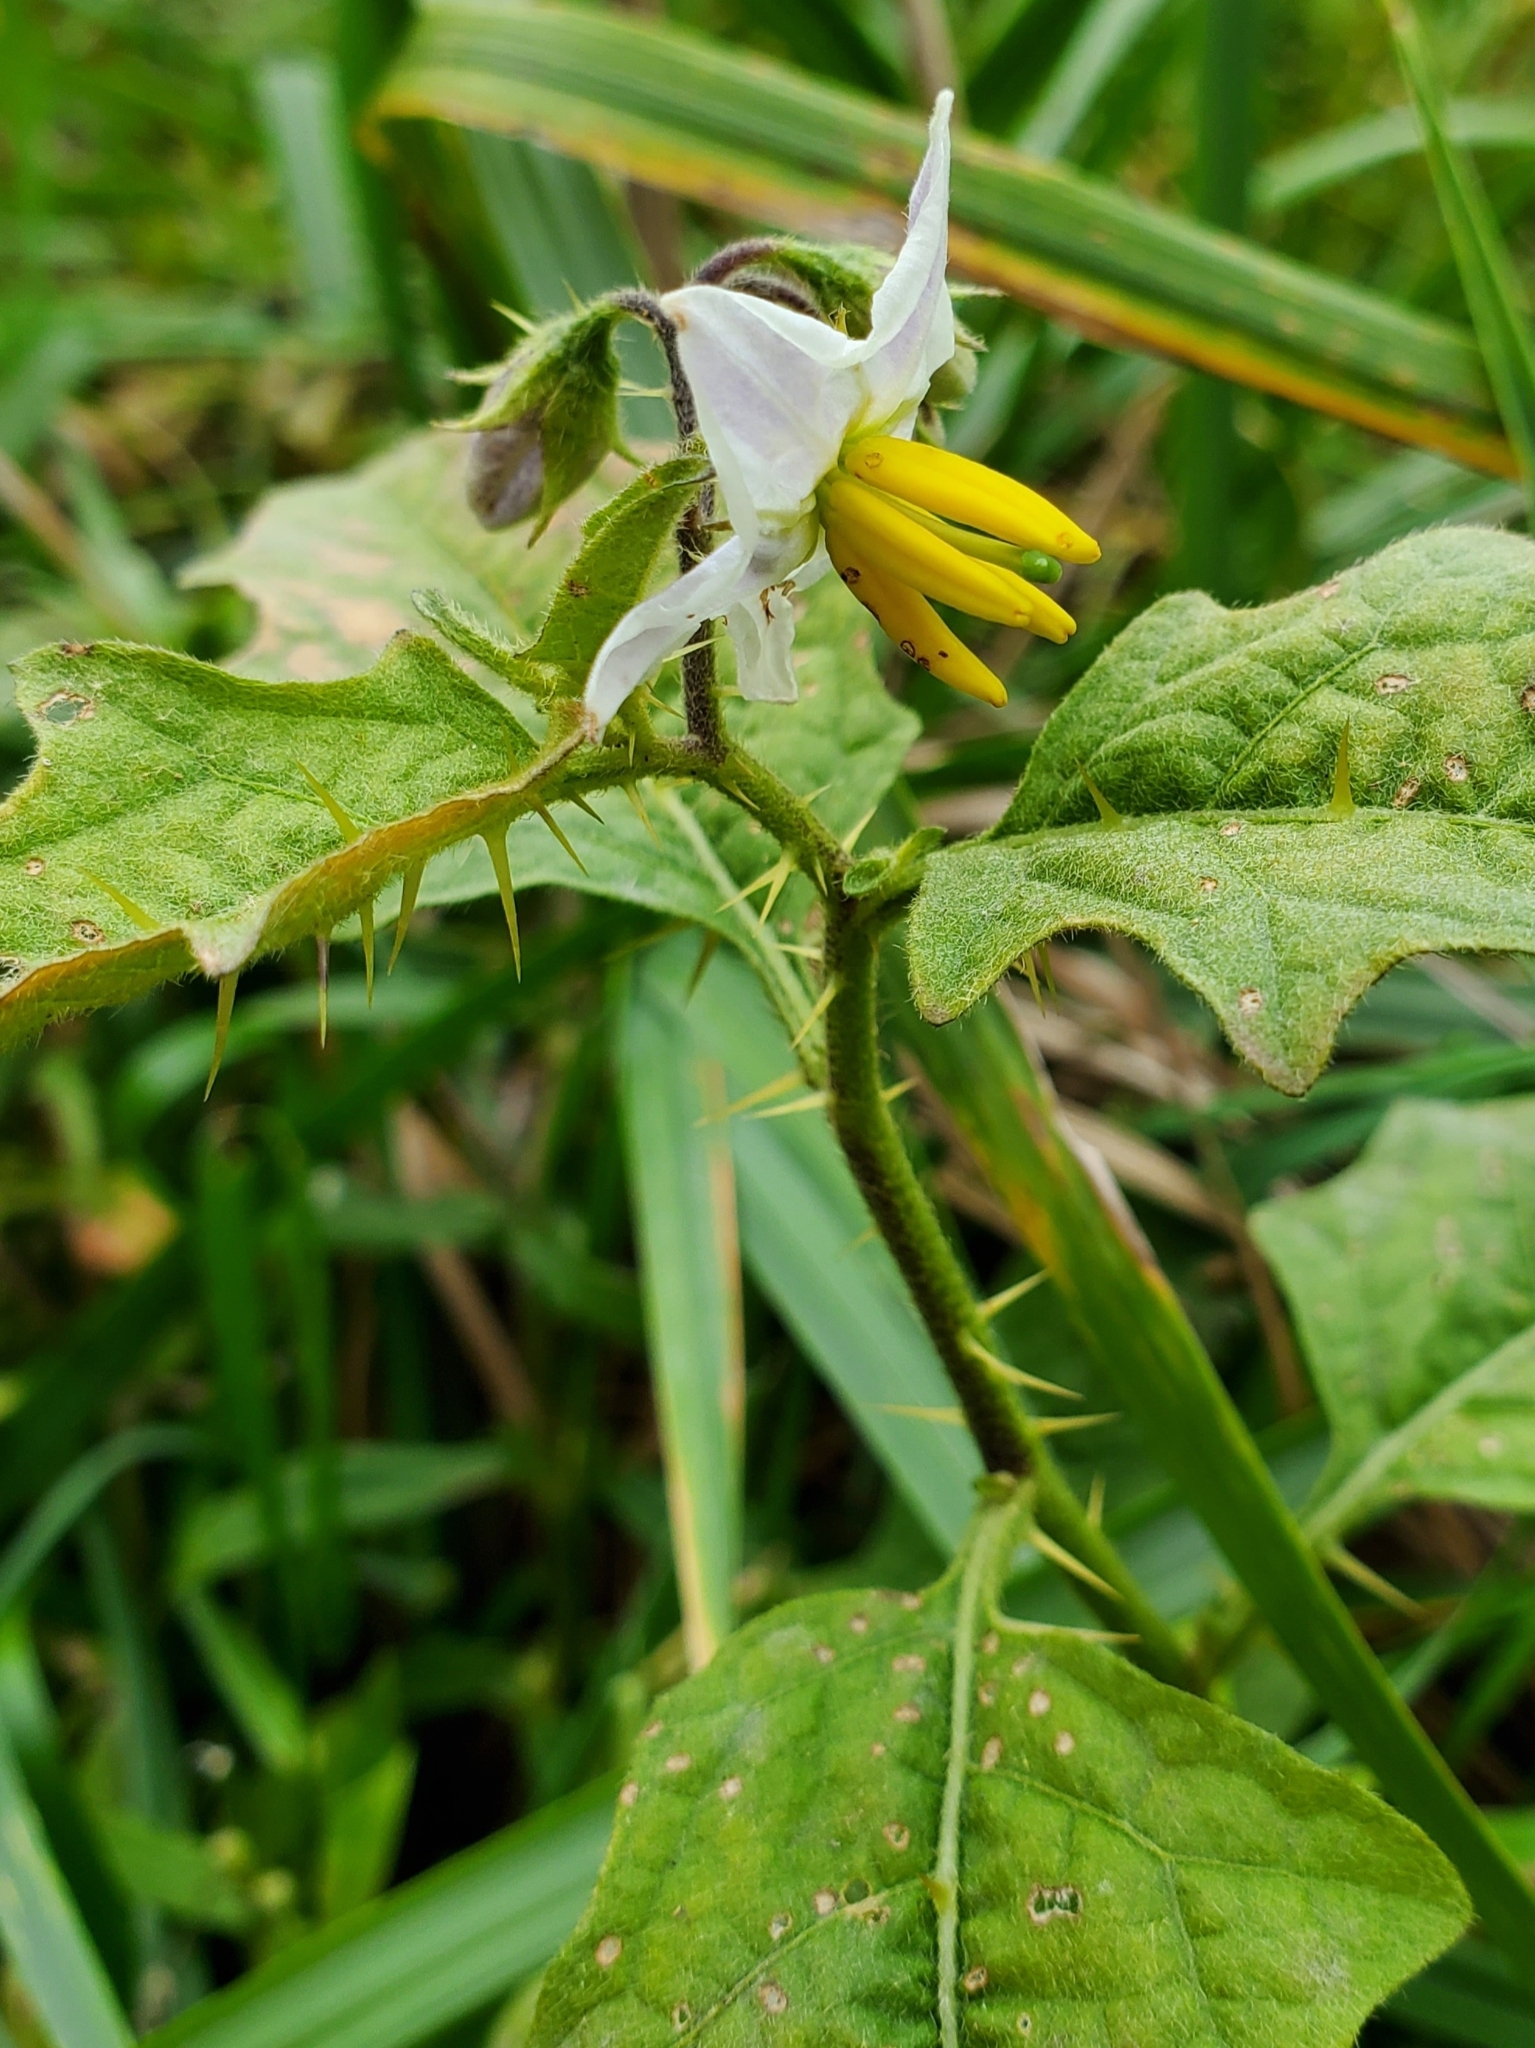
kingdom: Plantae
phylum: Tracheophyta
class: Magnoliopsida
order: Solanales
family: Solanaceae
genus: Solanum
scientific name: Solanum carolinense
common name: Horse-nettle
